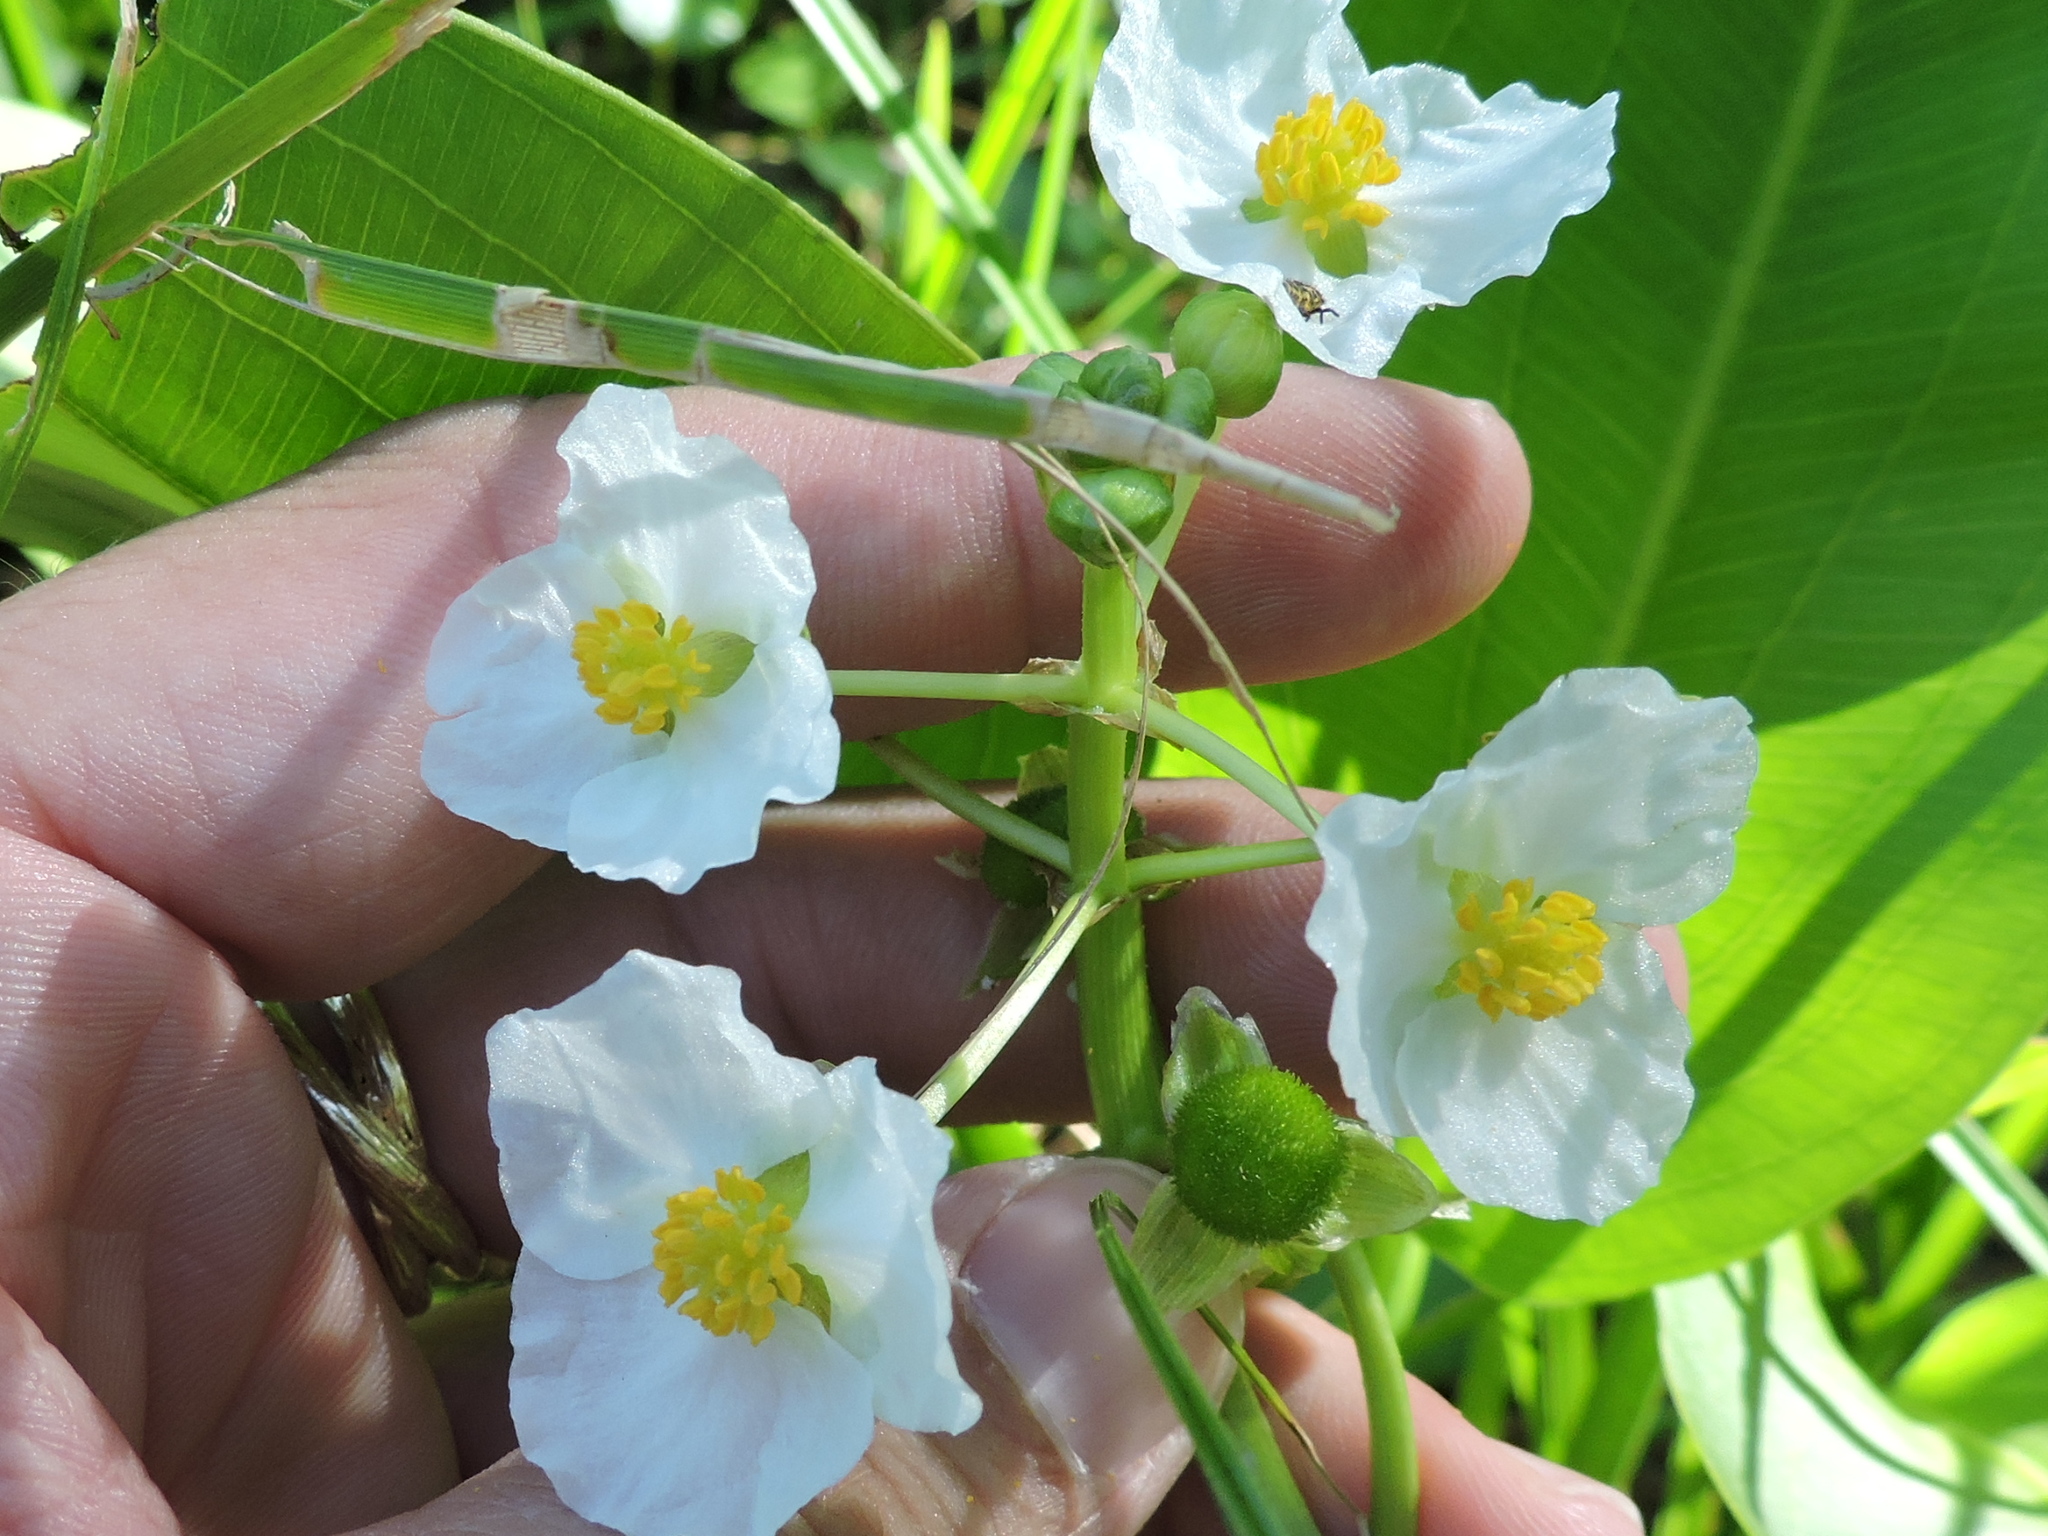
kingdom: Plantae
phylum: Tracheophyta
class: Liliopsida
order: Alismatales
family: Alismataceae
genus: Sagittaria
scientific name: Sagittaria platyphylla
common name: Broad-leaf arrowhead
